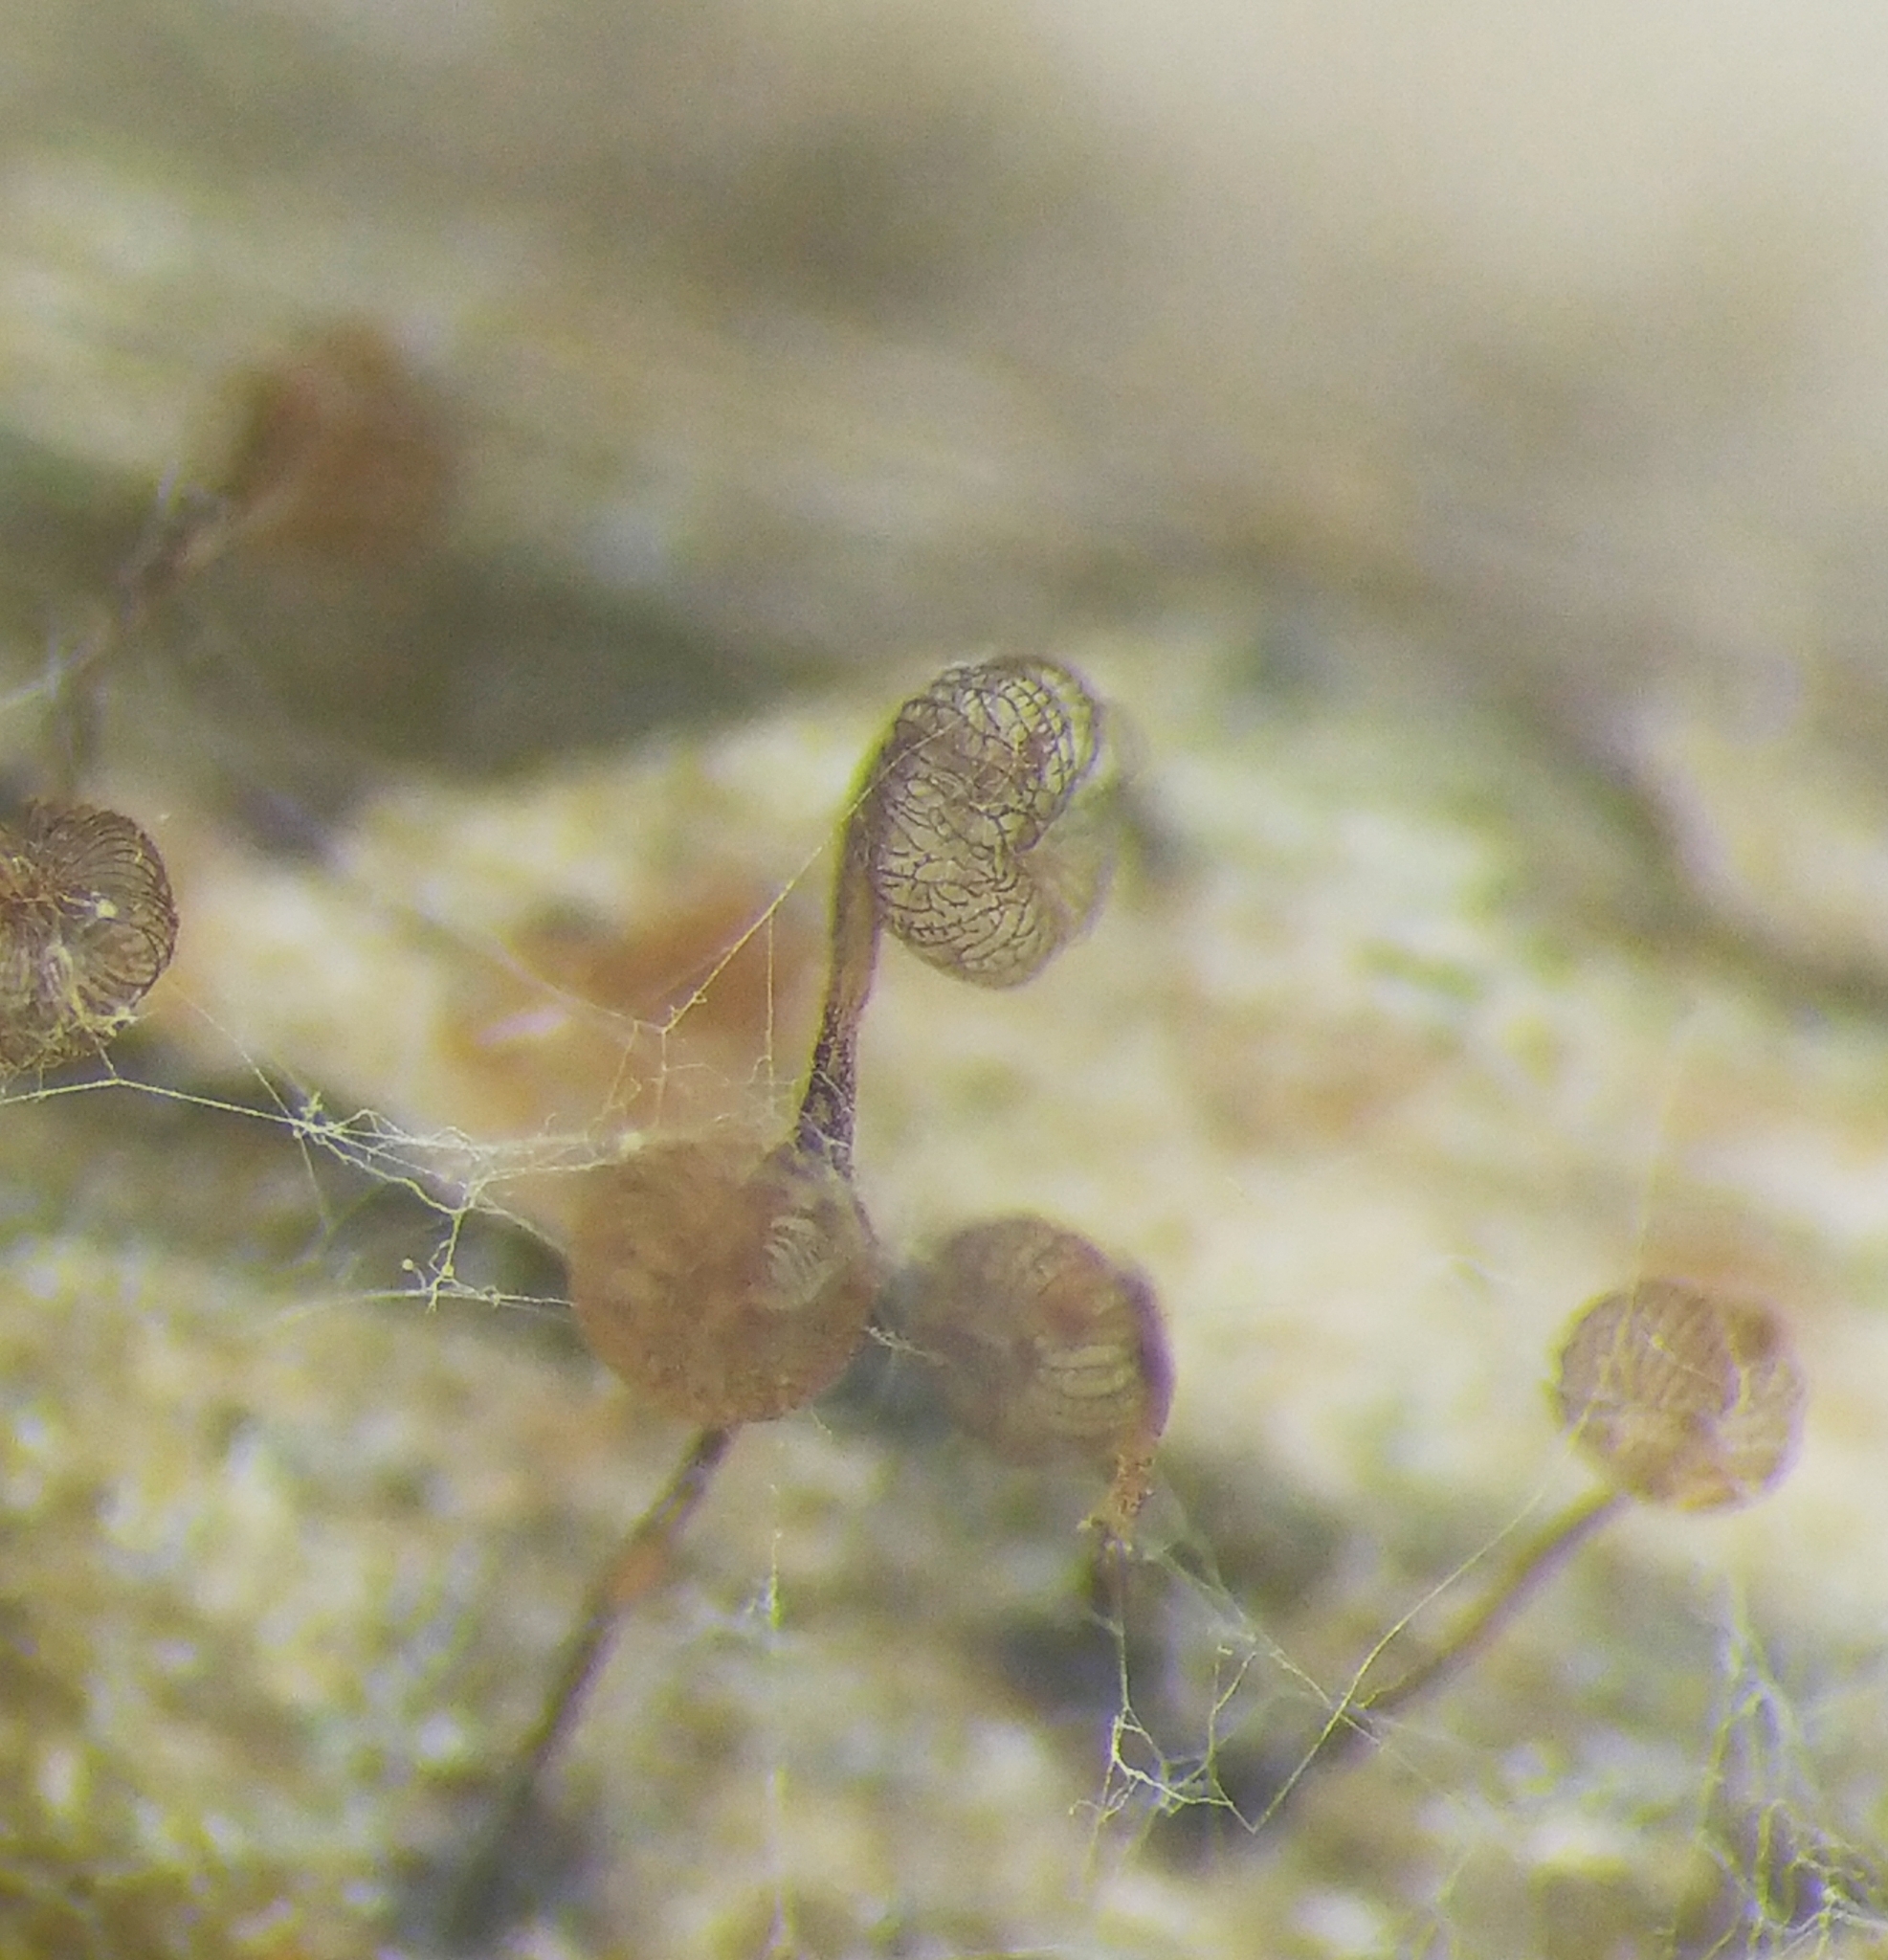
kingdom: Protozoa
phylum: Mycetozoa
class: Myxomycetes
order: Cribrariales
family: Cribrariaceae
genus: Cribraria
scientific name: Cribraria cancellata
